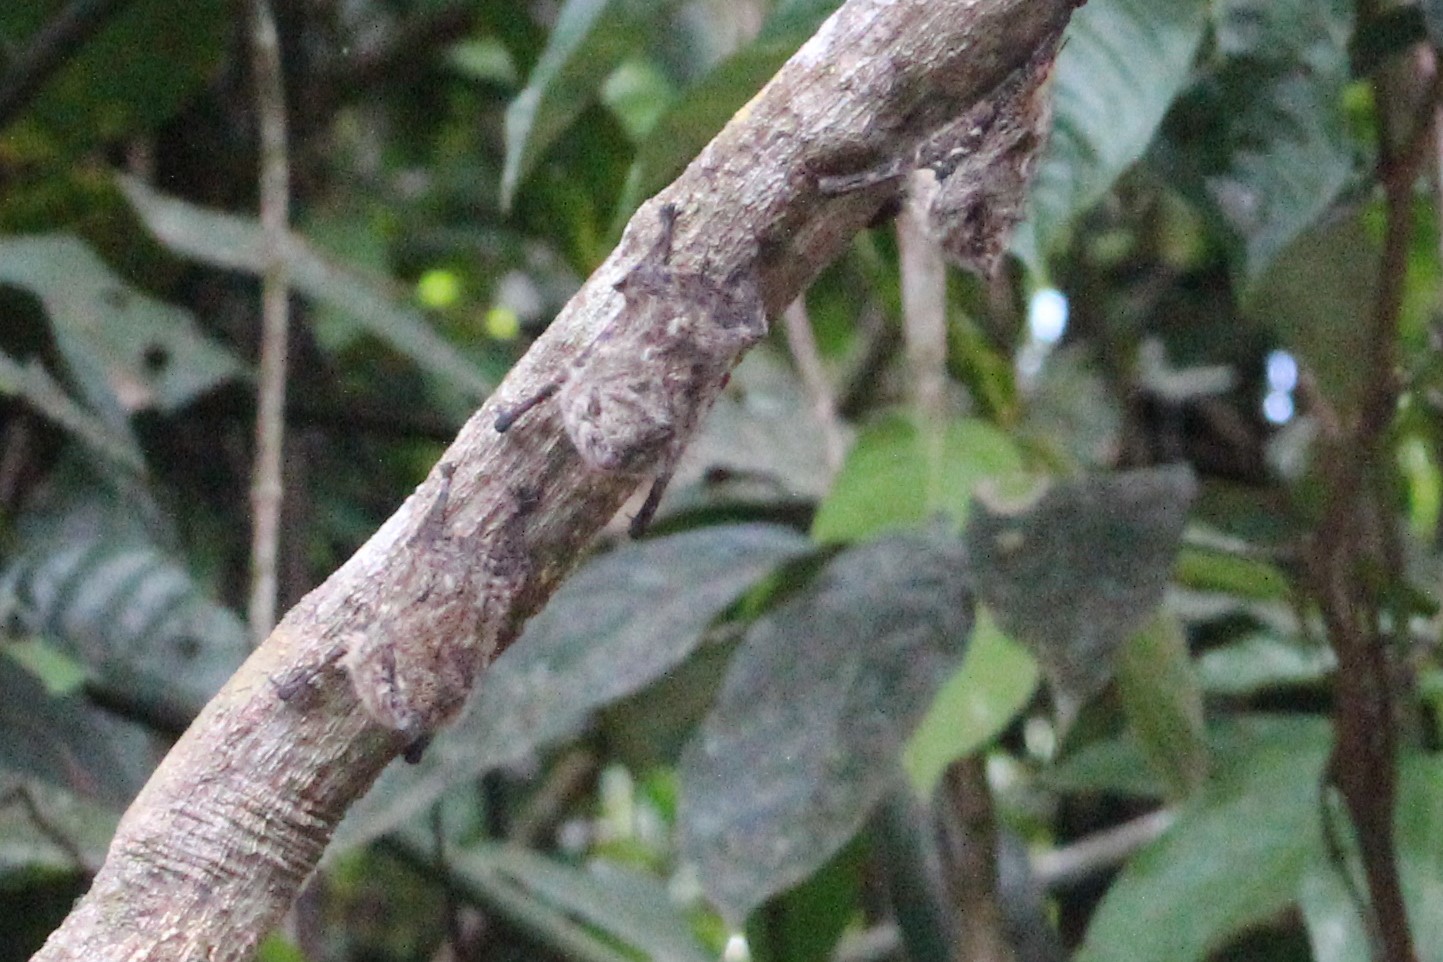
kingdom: Animalia
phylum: Chordata
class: Mammalia
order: Chiroptera
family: Emballonuridae
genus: Rhynchonycteris
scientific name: Rhynchonycteris naso
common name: Proboscis bat
